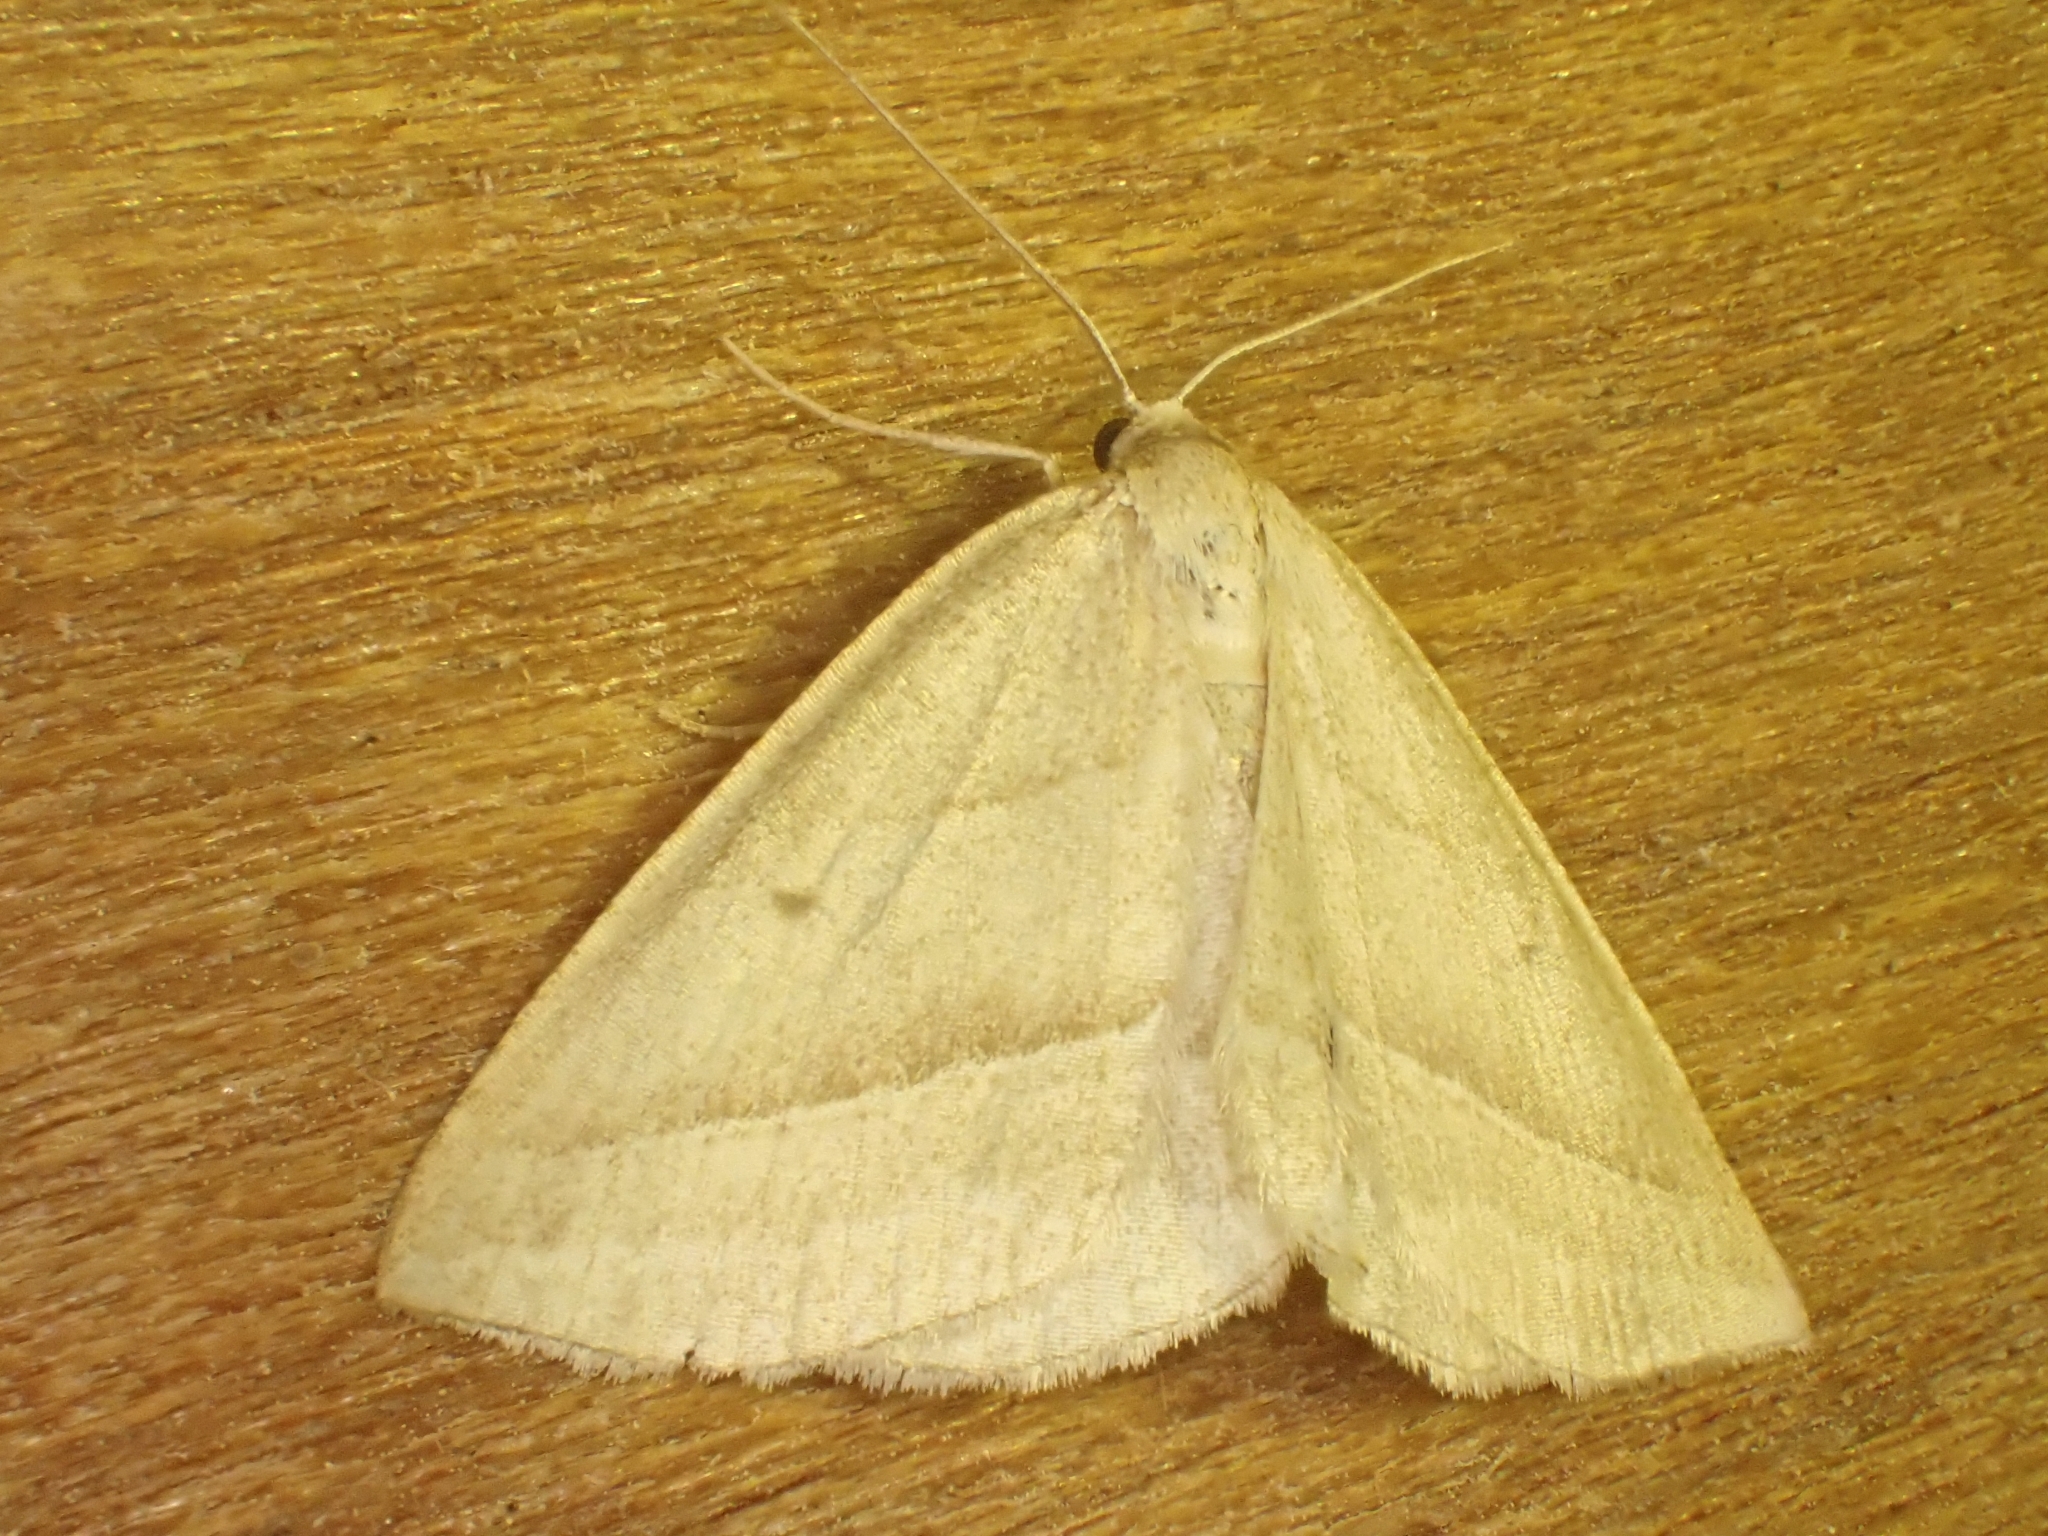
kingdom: Animalia
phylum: Arthropoda
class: Insecta
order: Lepidoptera
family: Pterophoridae
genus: Pterophorus
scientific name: Pterophorus Petrophora chlorosata
